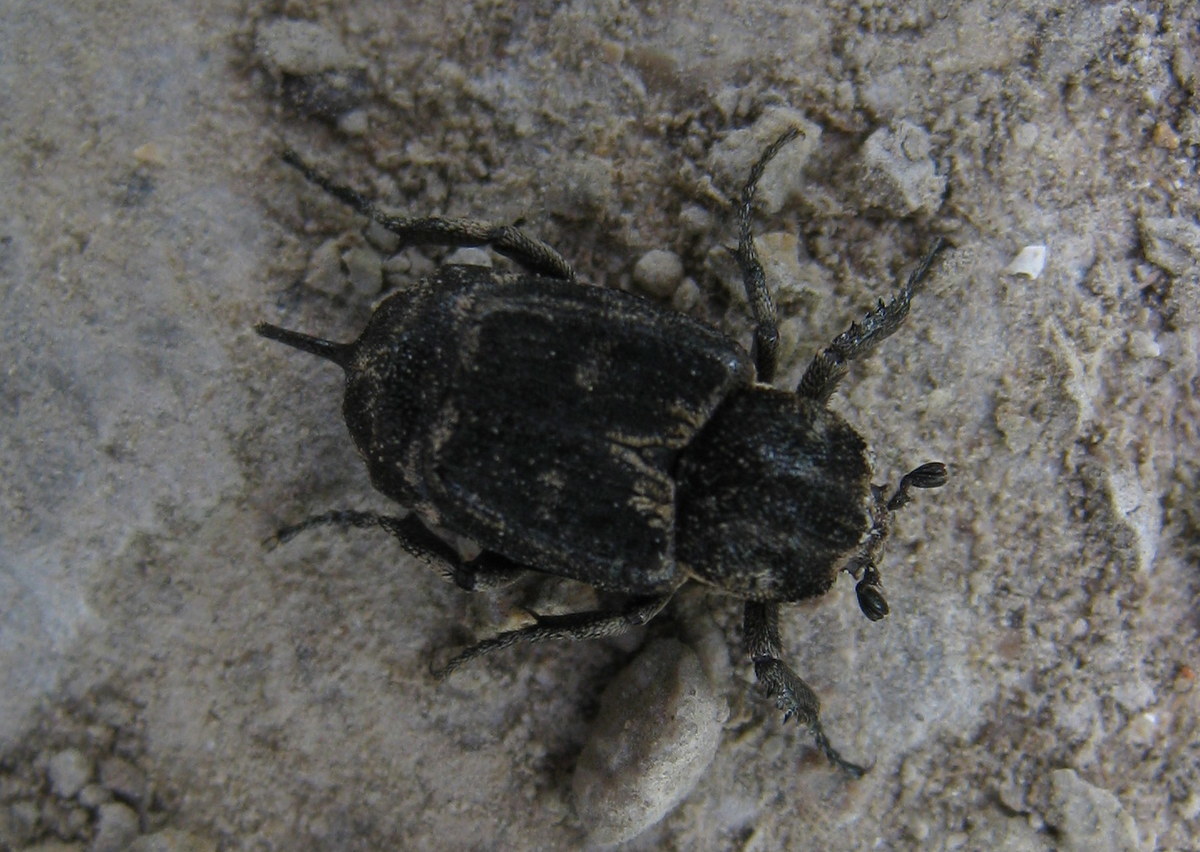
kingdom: Animalia
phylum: Arthropoda
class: Insecta
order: Coleoptera
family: Scarabaeidae
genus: Valgus
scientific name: Valgus hemipterus
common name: Bug flower chafer
